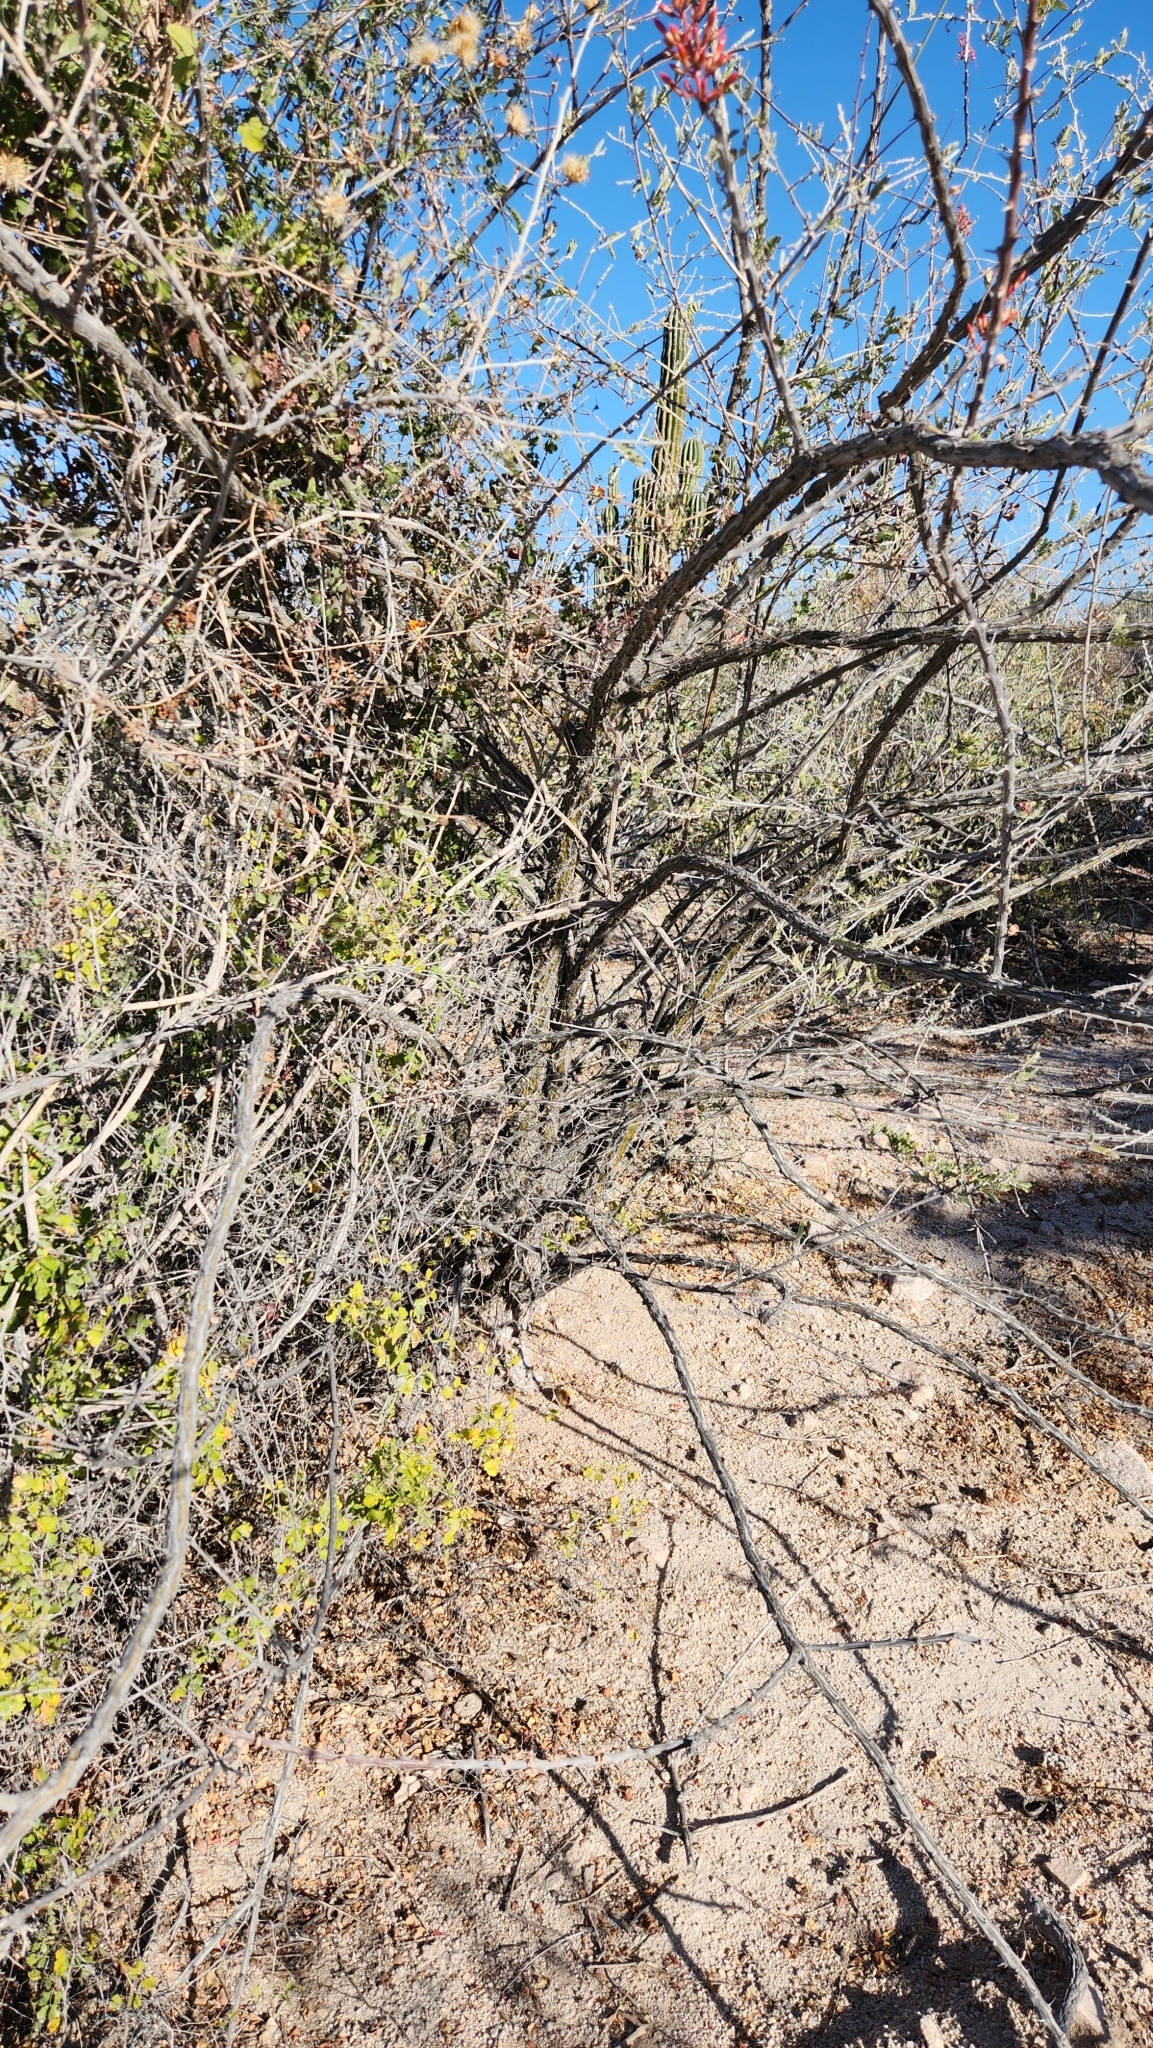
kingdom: Plantae
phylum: Tracheophyta
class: Magnoliopsida
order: Ericales
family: Fouquieriaceae
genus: Fouquieria
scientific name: Fouquieria diguetii
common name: Adam's tree
